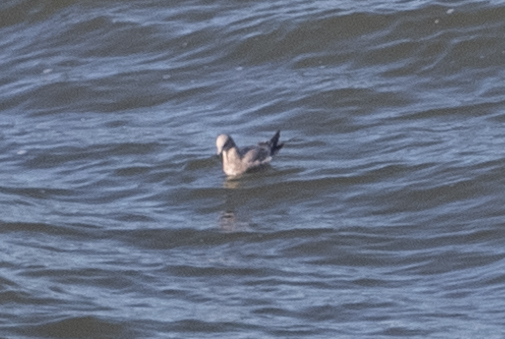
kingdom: Animalia
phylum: Chordata
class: Aves
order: Charadriiformes
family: Laridae
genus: Larus
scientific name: Larus
